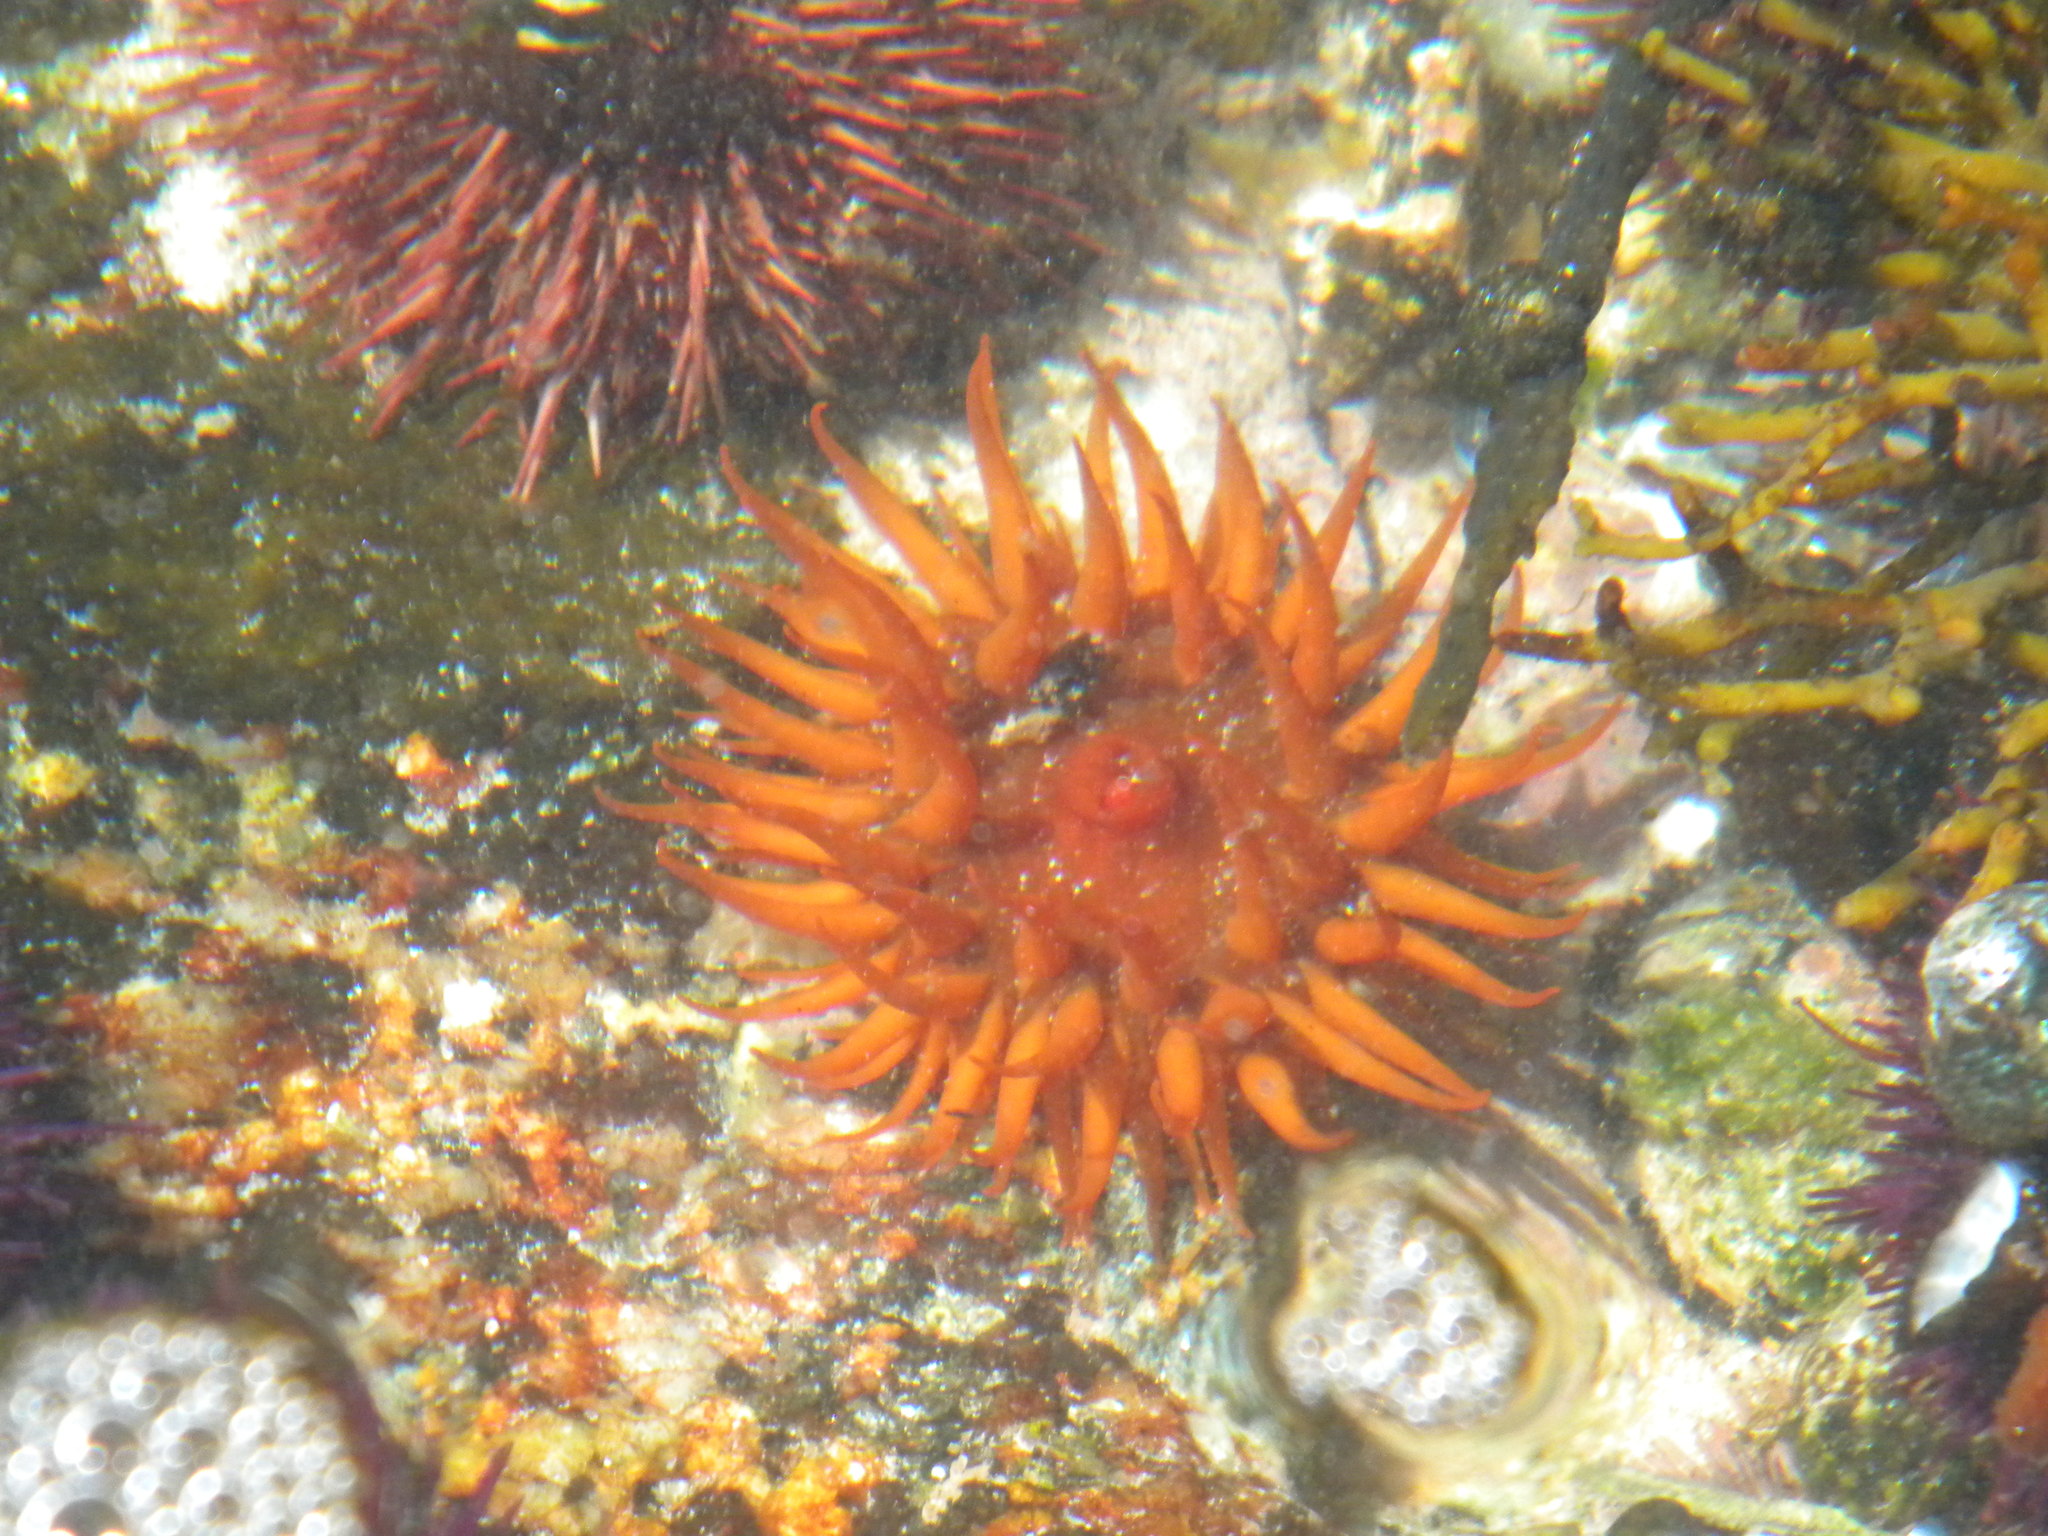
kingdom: Animalia
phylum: Cnidaria
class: Anthozoa
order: Actiniaria
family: Actiniidae
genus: Pseudactinia
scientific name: Pseudactinia flagellifera
